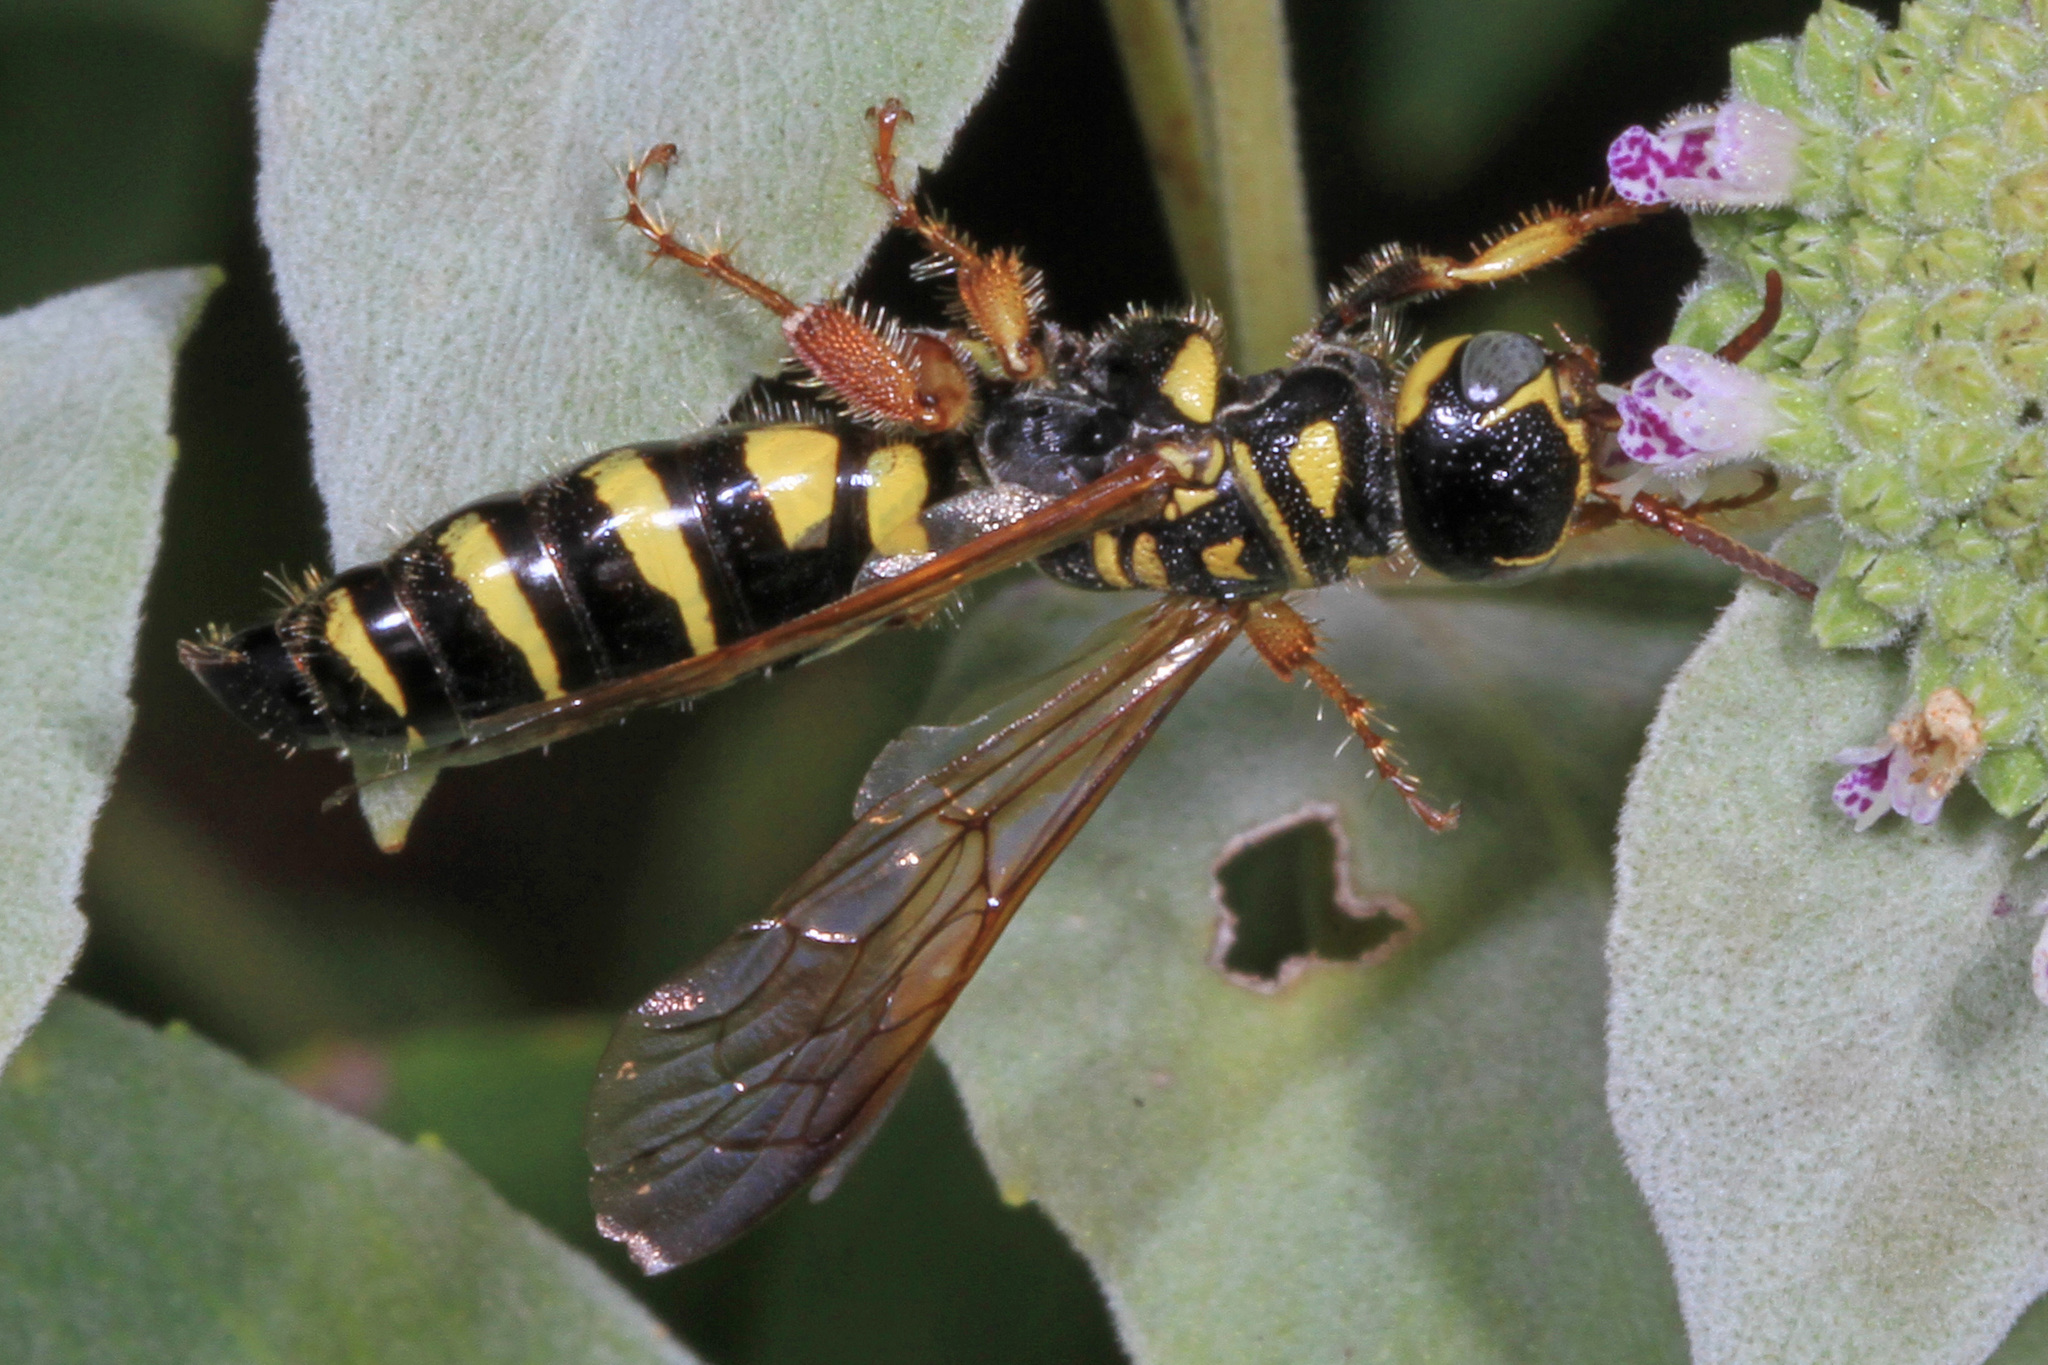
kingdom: Animalia
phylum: Arthropoda
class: Insecta
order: Hymenoptera
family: Tiphiidae
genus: Myzinum
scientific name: Myzinum quinquecinctum
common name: Five-banded thynnid wasp
